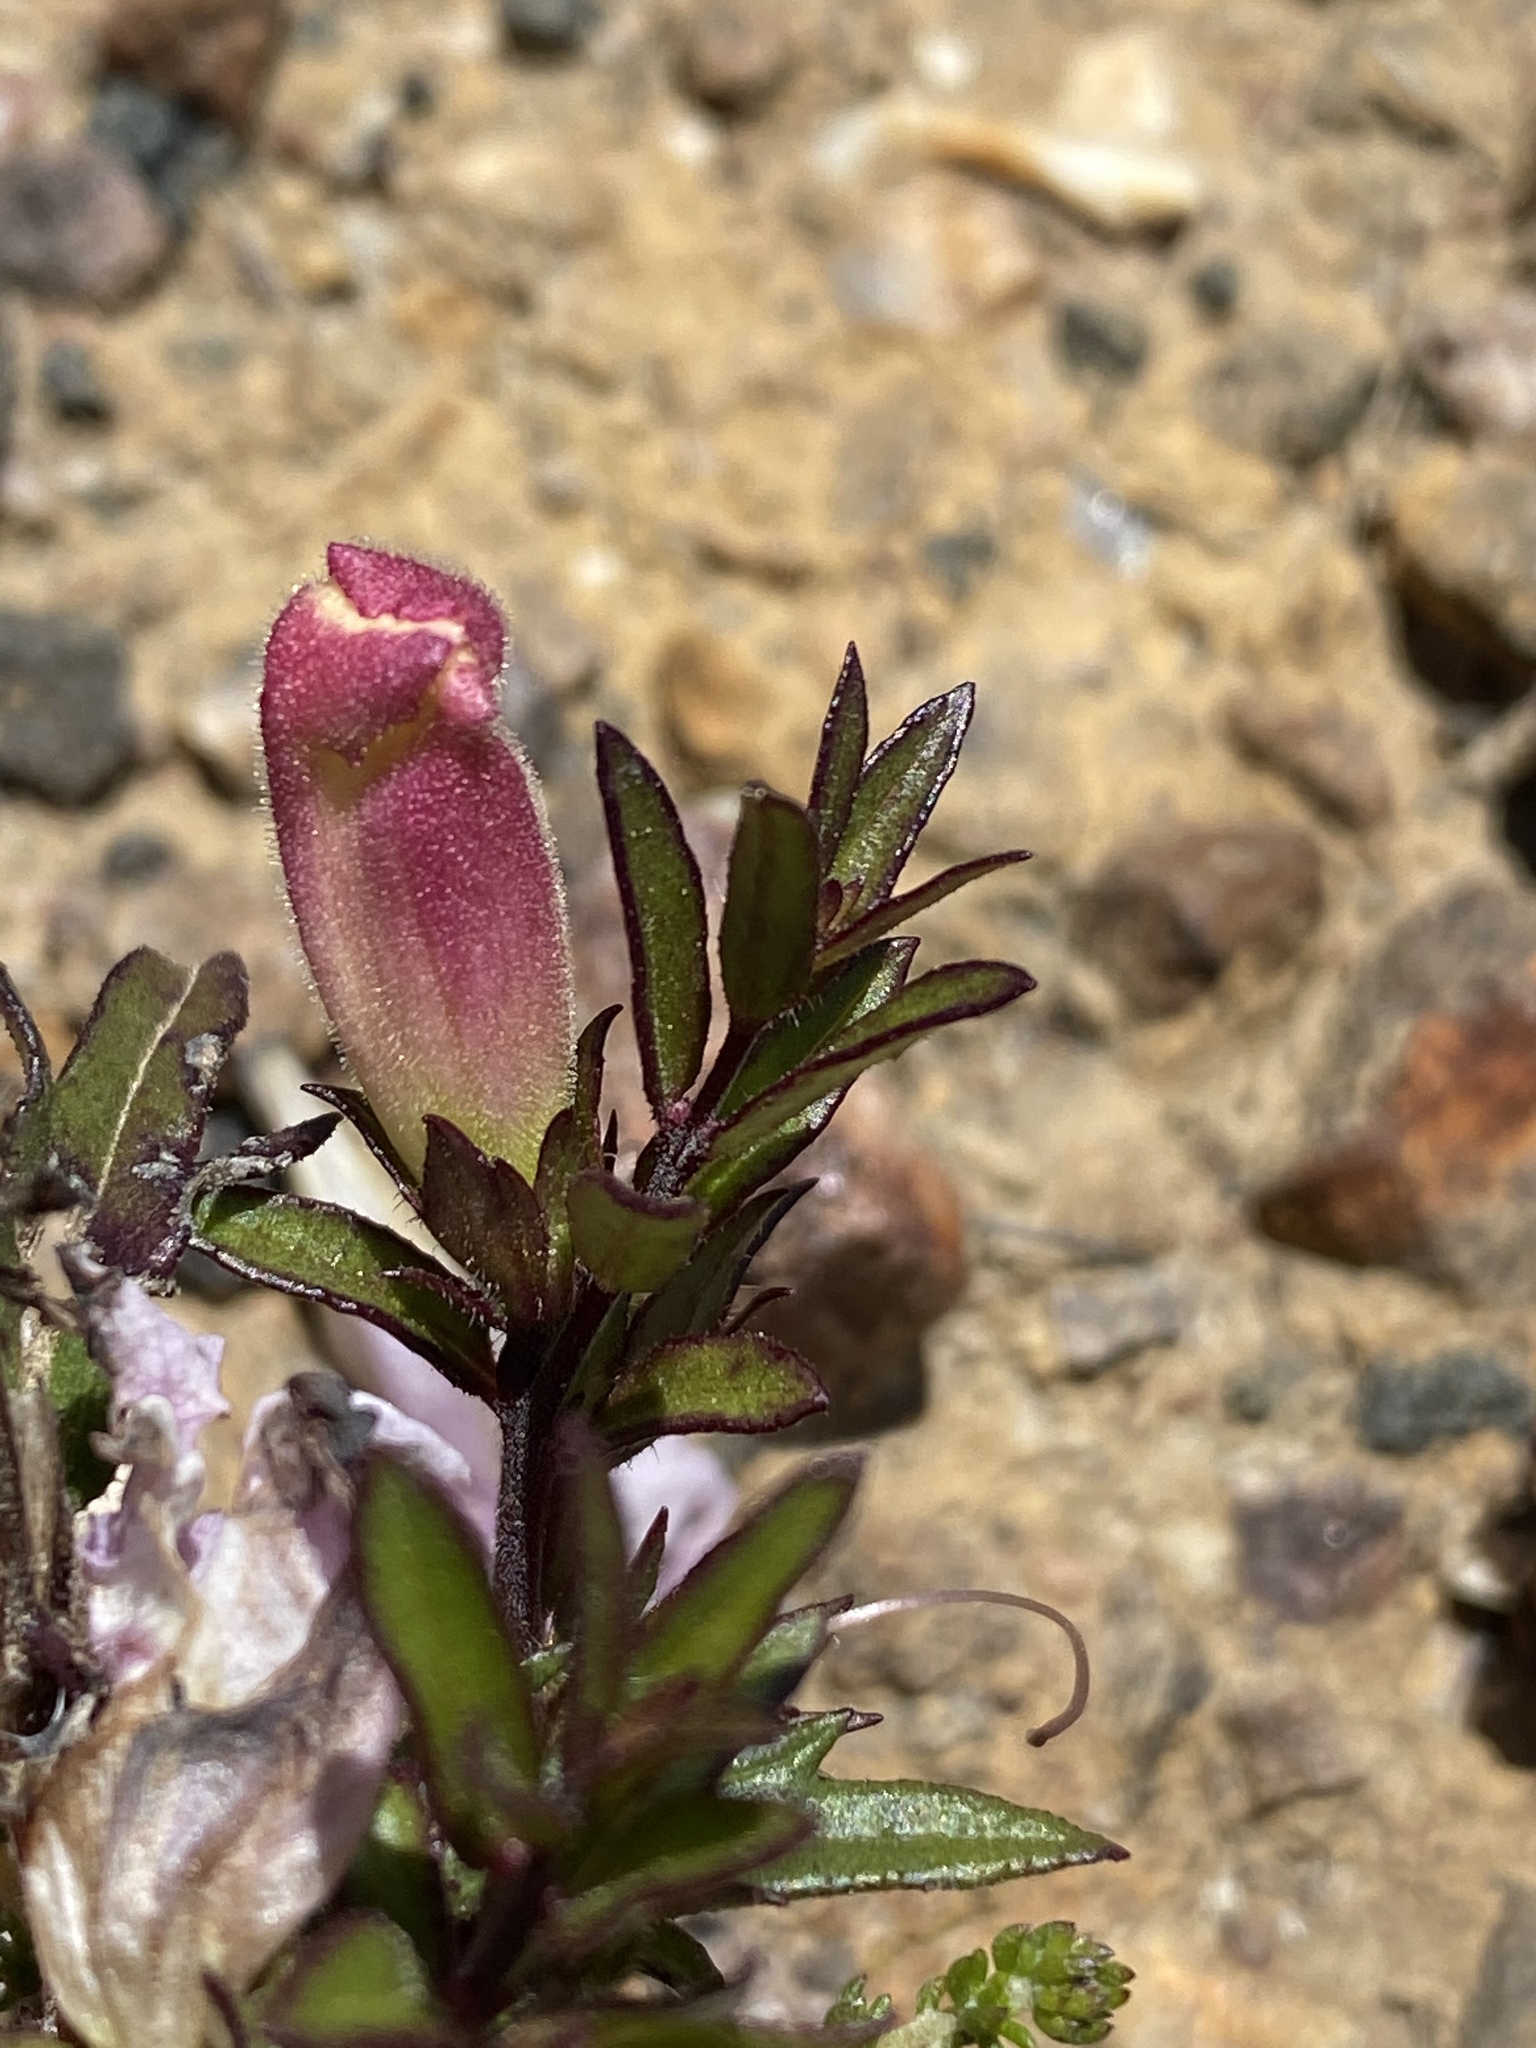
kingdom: Plantae
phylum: Tracheophyta
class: Magnoliopsida
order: Lamiales
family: Orobanchaceae
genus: Graderia
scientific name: Graderia scabra
